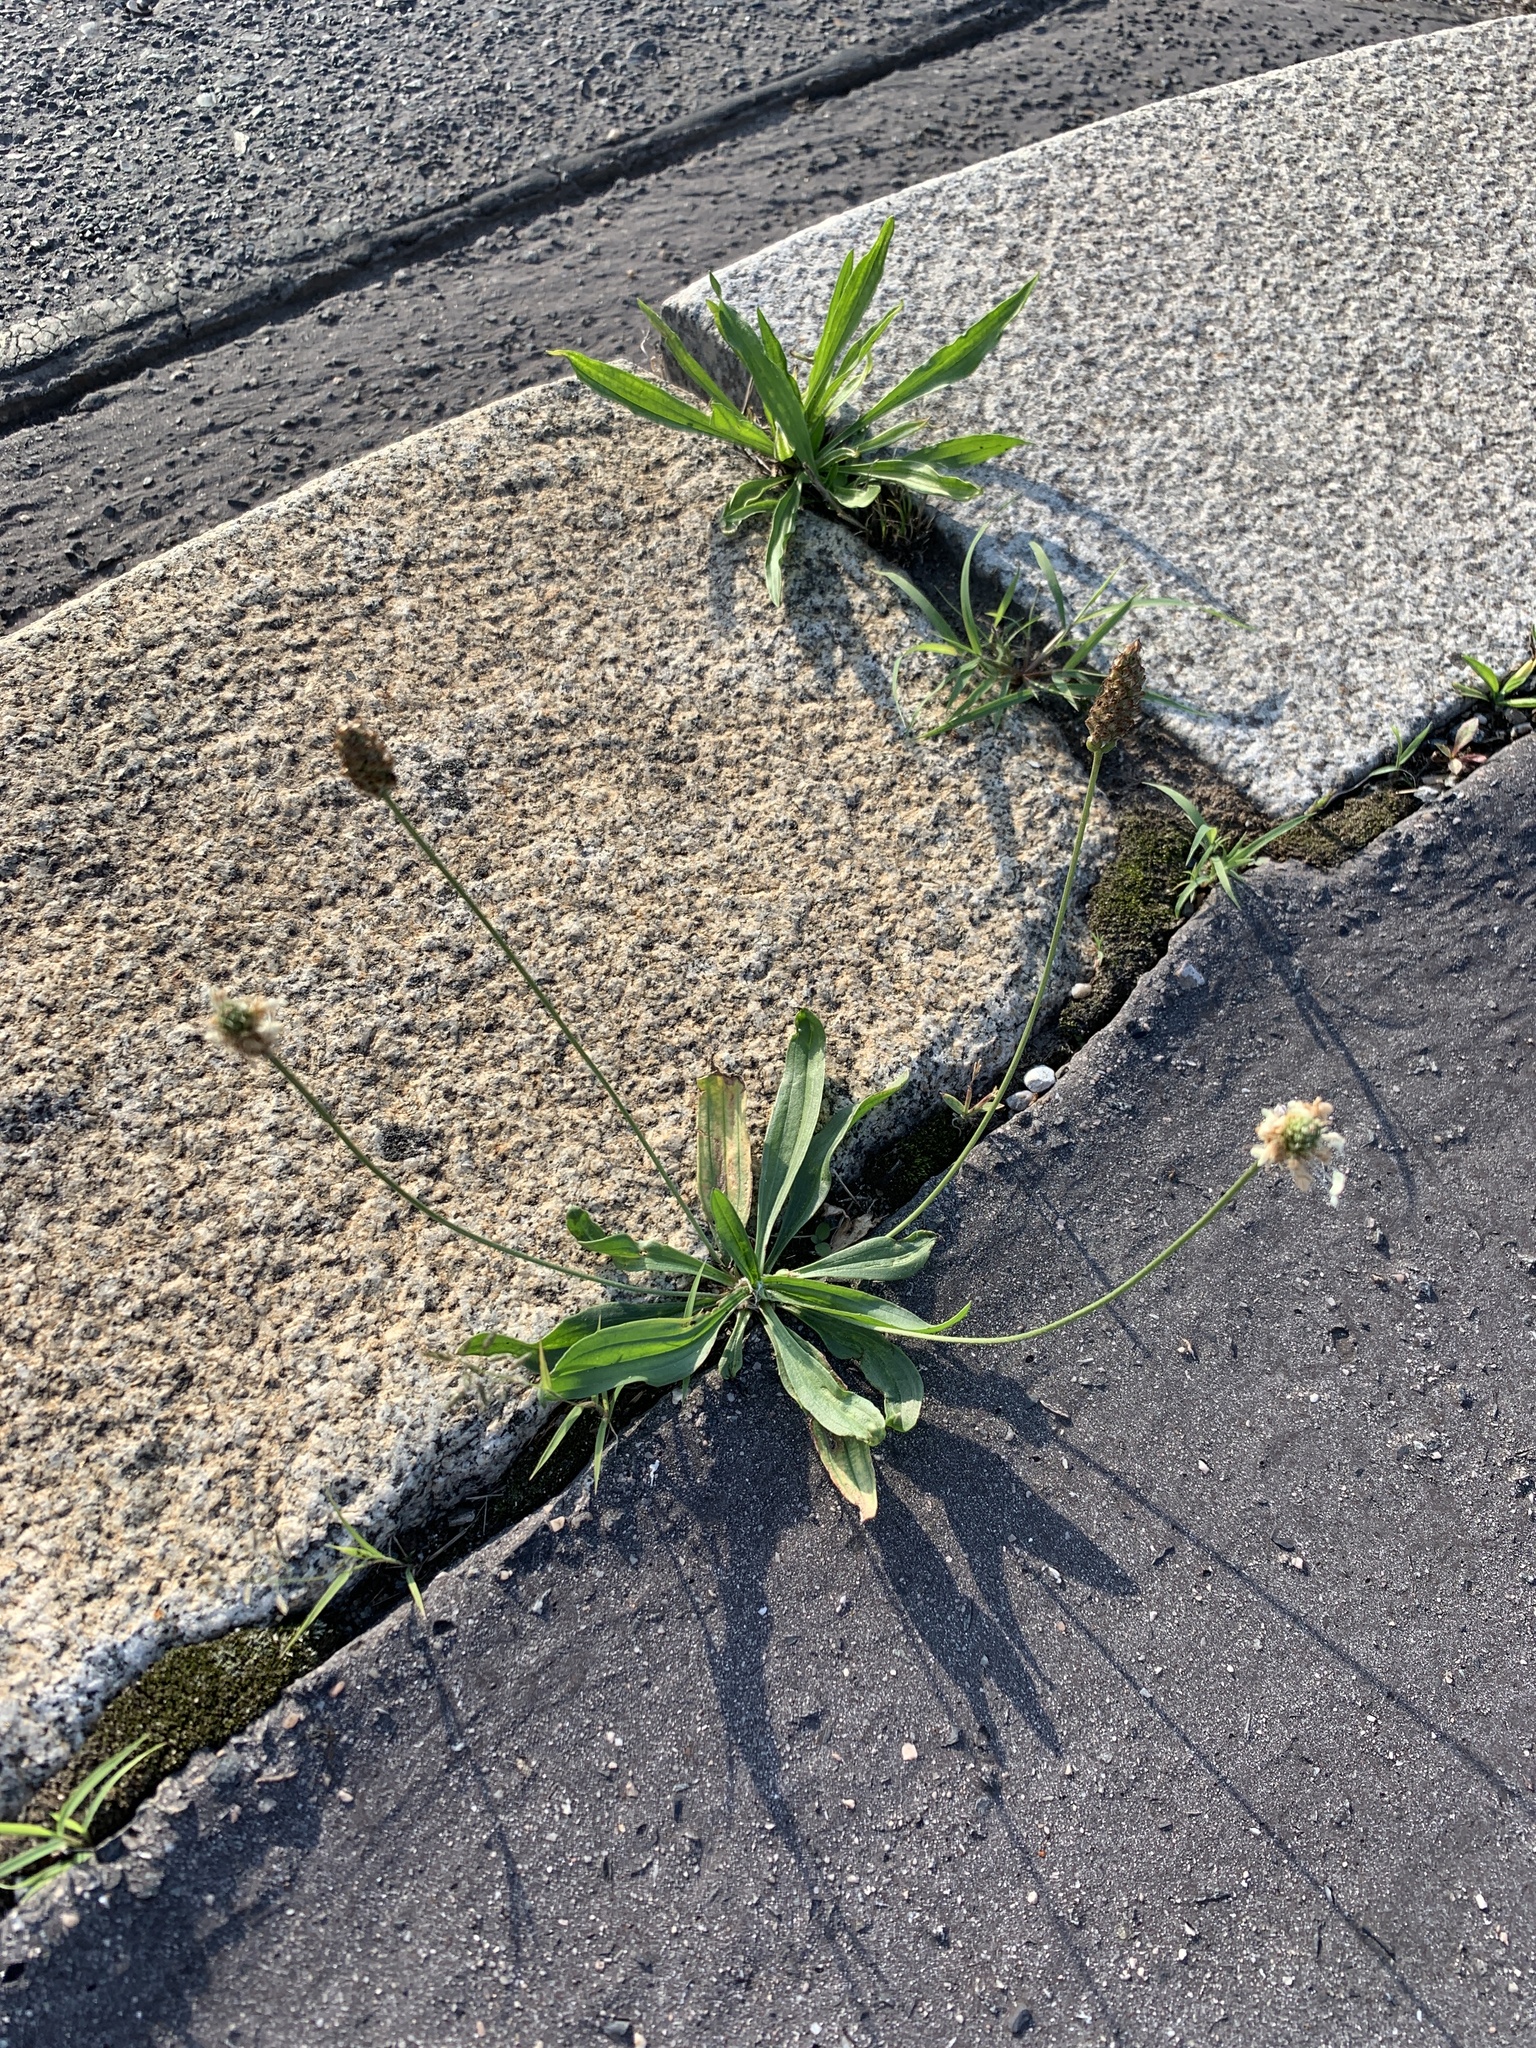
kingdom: Plantae
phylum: Tracheophyta
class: Magnoliopsida
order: Lamiales
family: Plantaginaceae
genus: Plantago
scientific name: Plantago lanceolata
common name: Ribwort plantain
